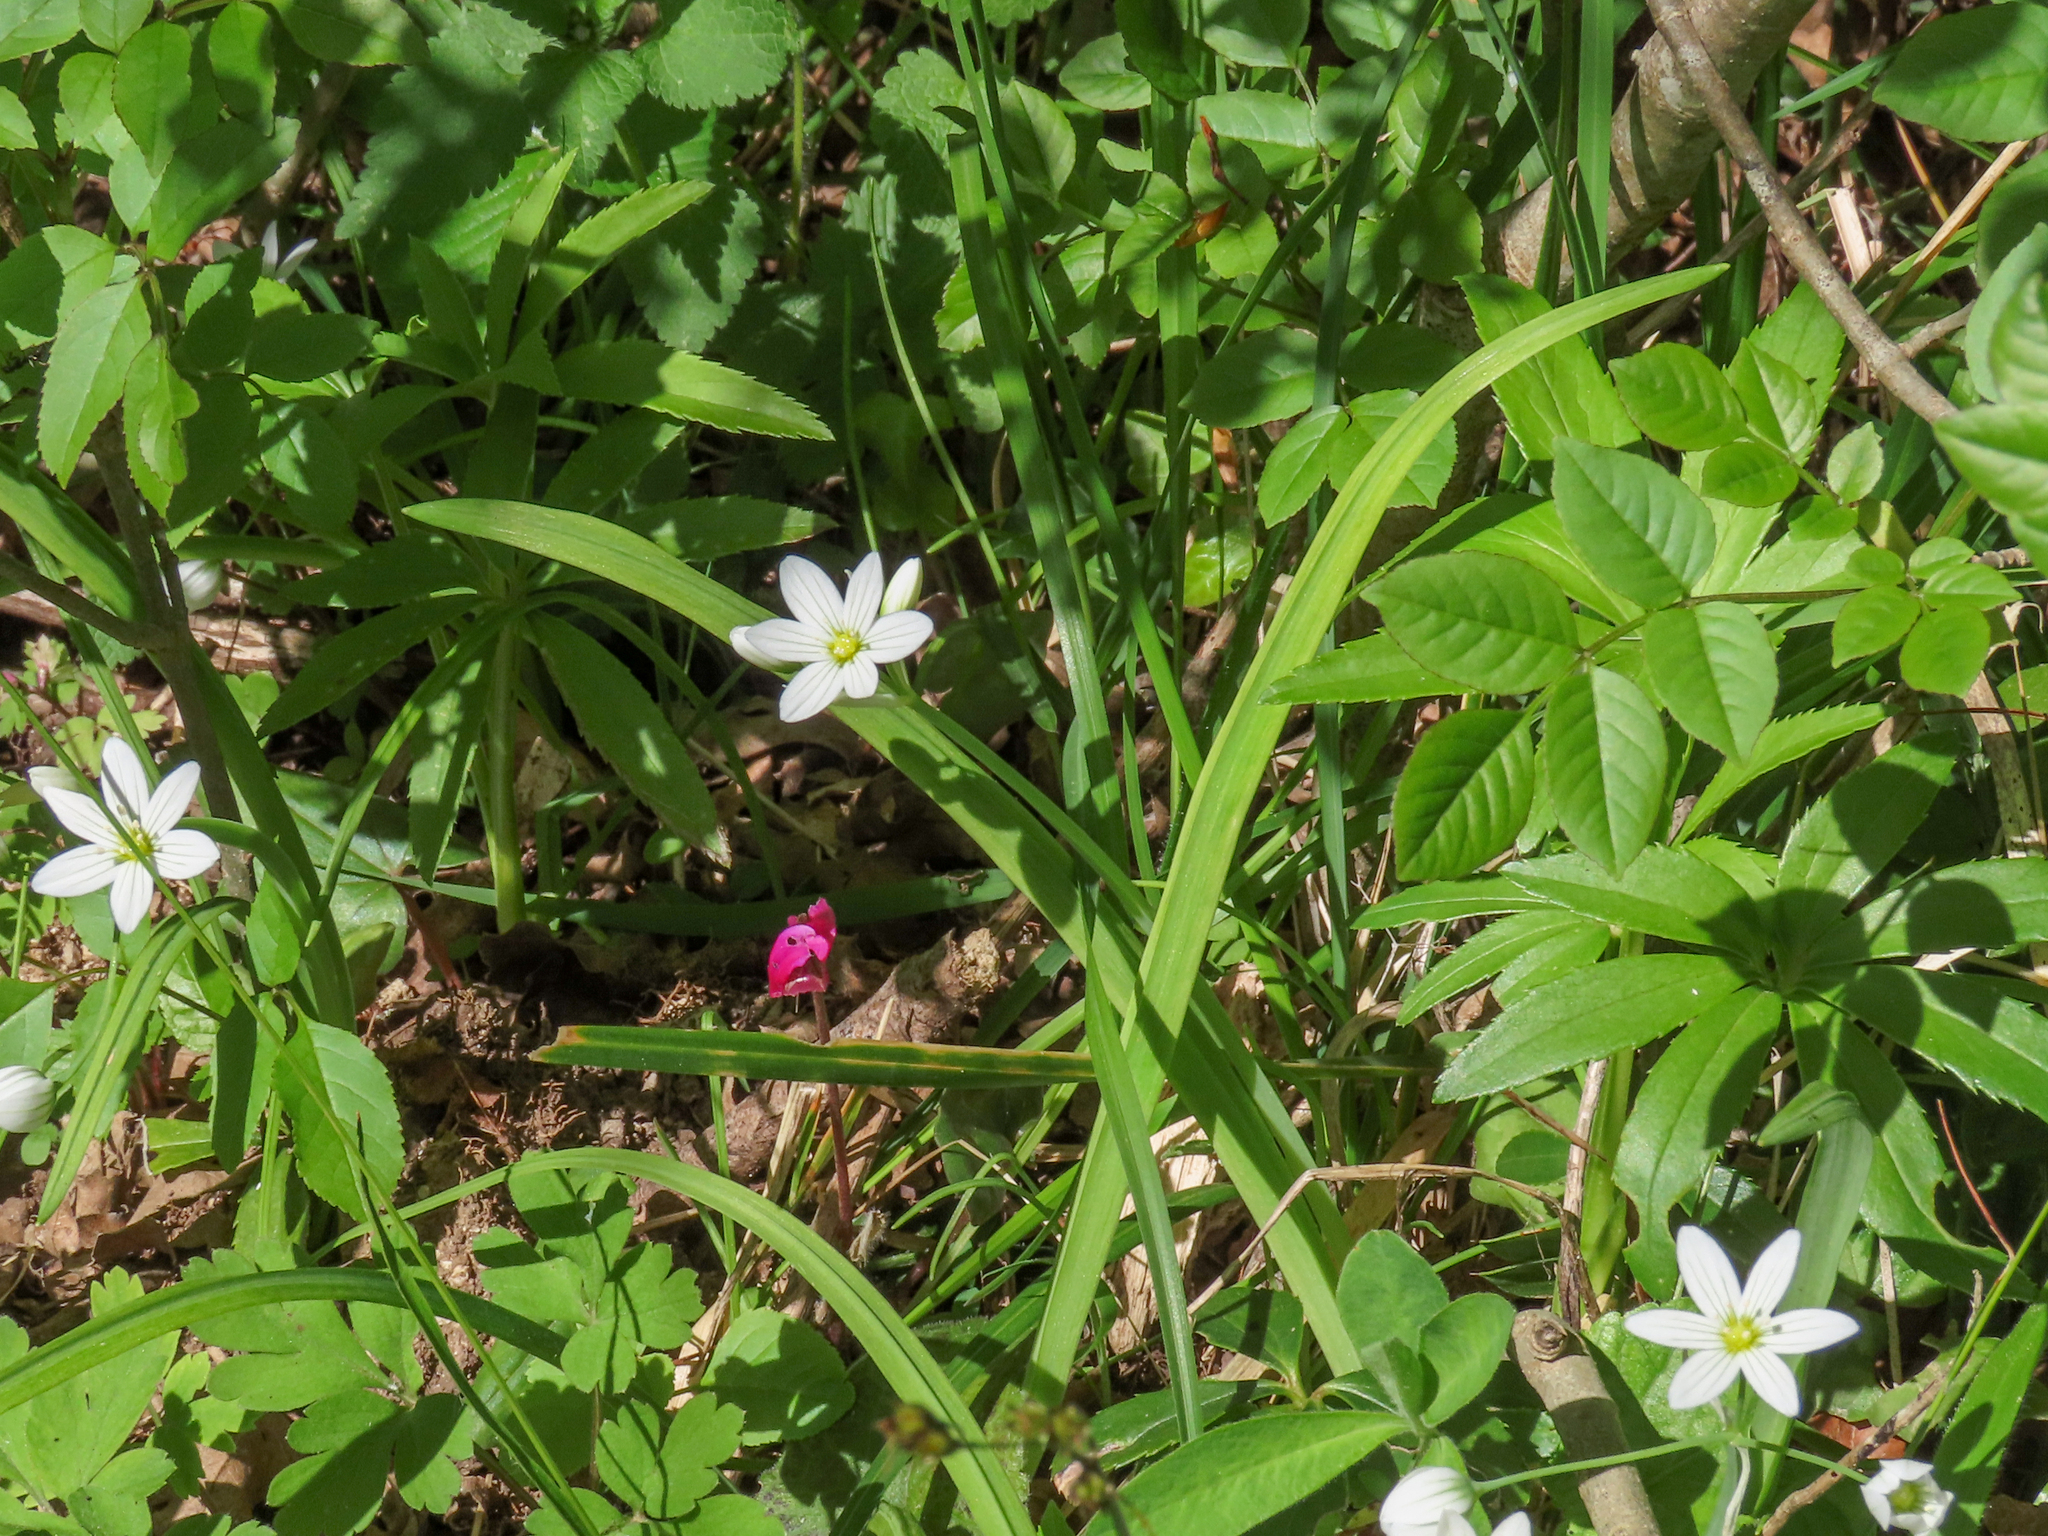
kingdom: Plantae
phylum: Tracheophyta
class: Liliopsida
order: Asparagales
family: Amaryllidaceae
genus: Allium
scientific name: Allium pendulinum
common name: Italian garlic
